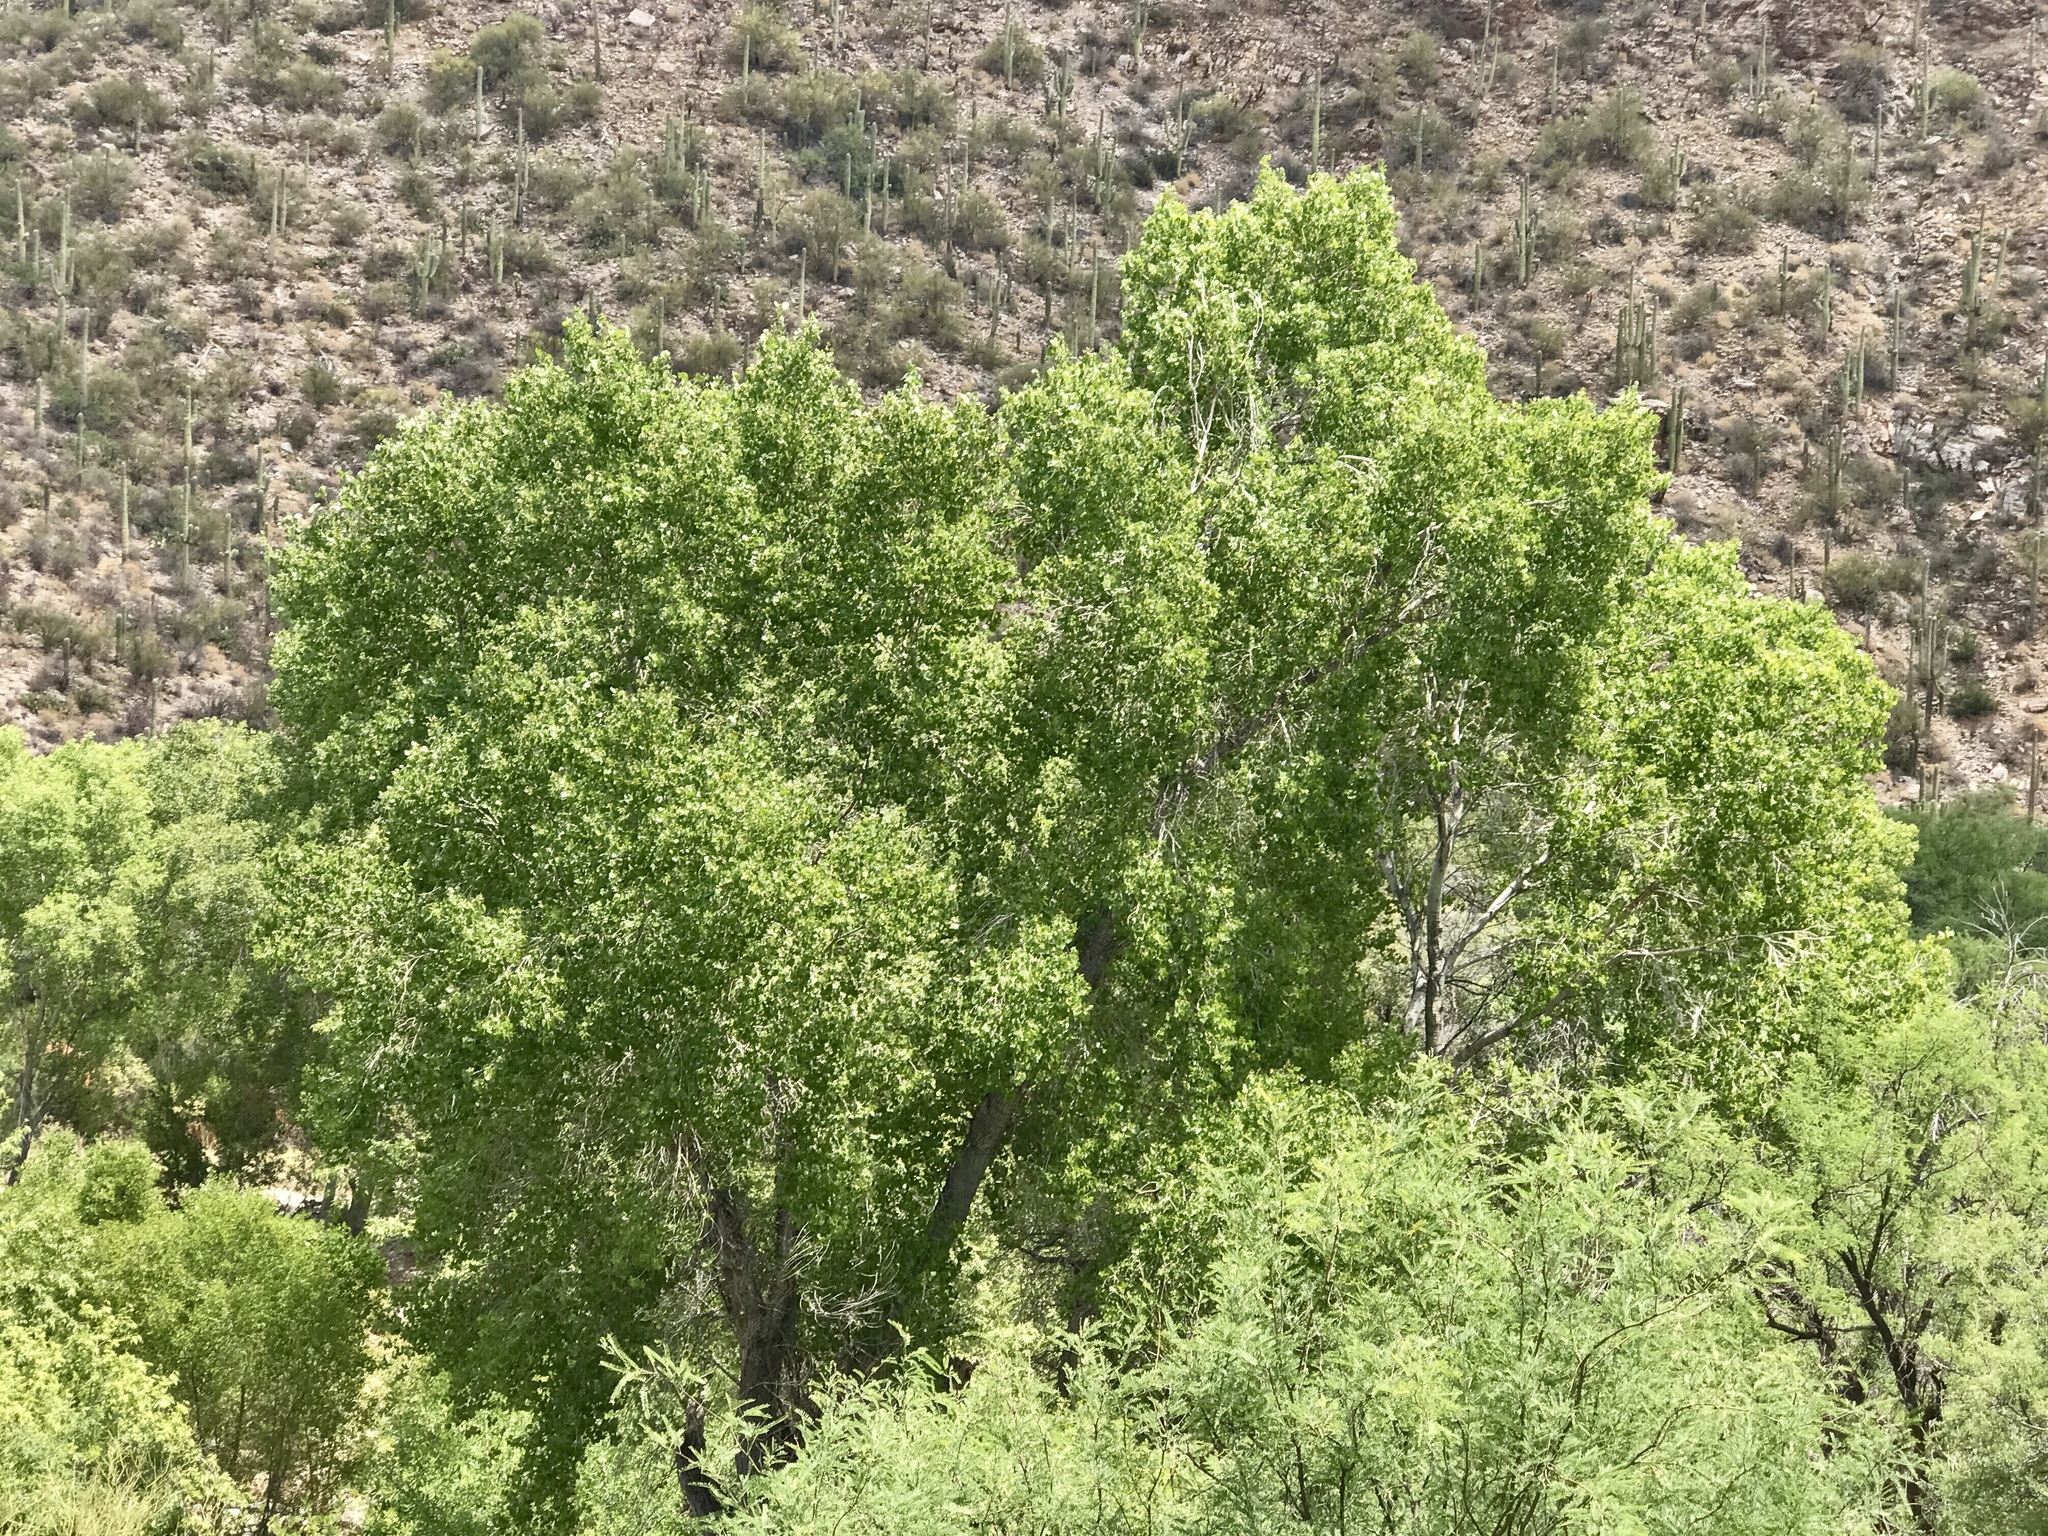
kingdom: Plantae
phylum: Tracheophyta
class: Magnoliopsida
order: Malpighiales
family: Salicaceae
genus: Populus
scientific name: Populus fremontii
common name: Fremont's cottonwood
